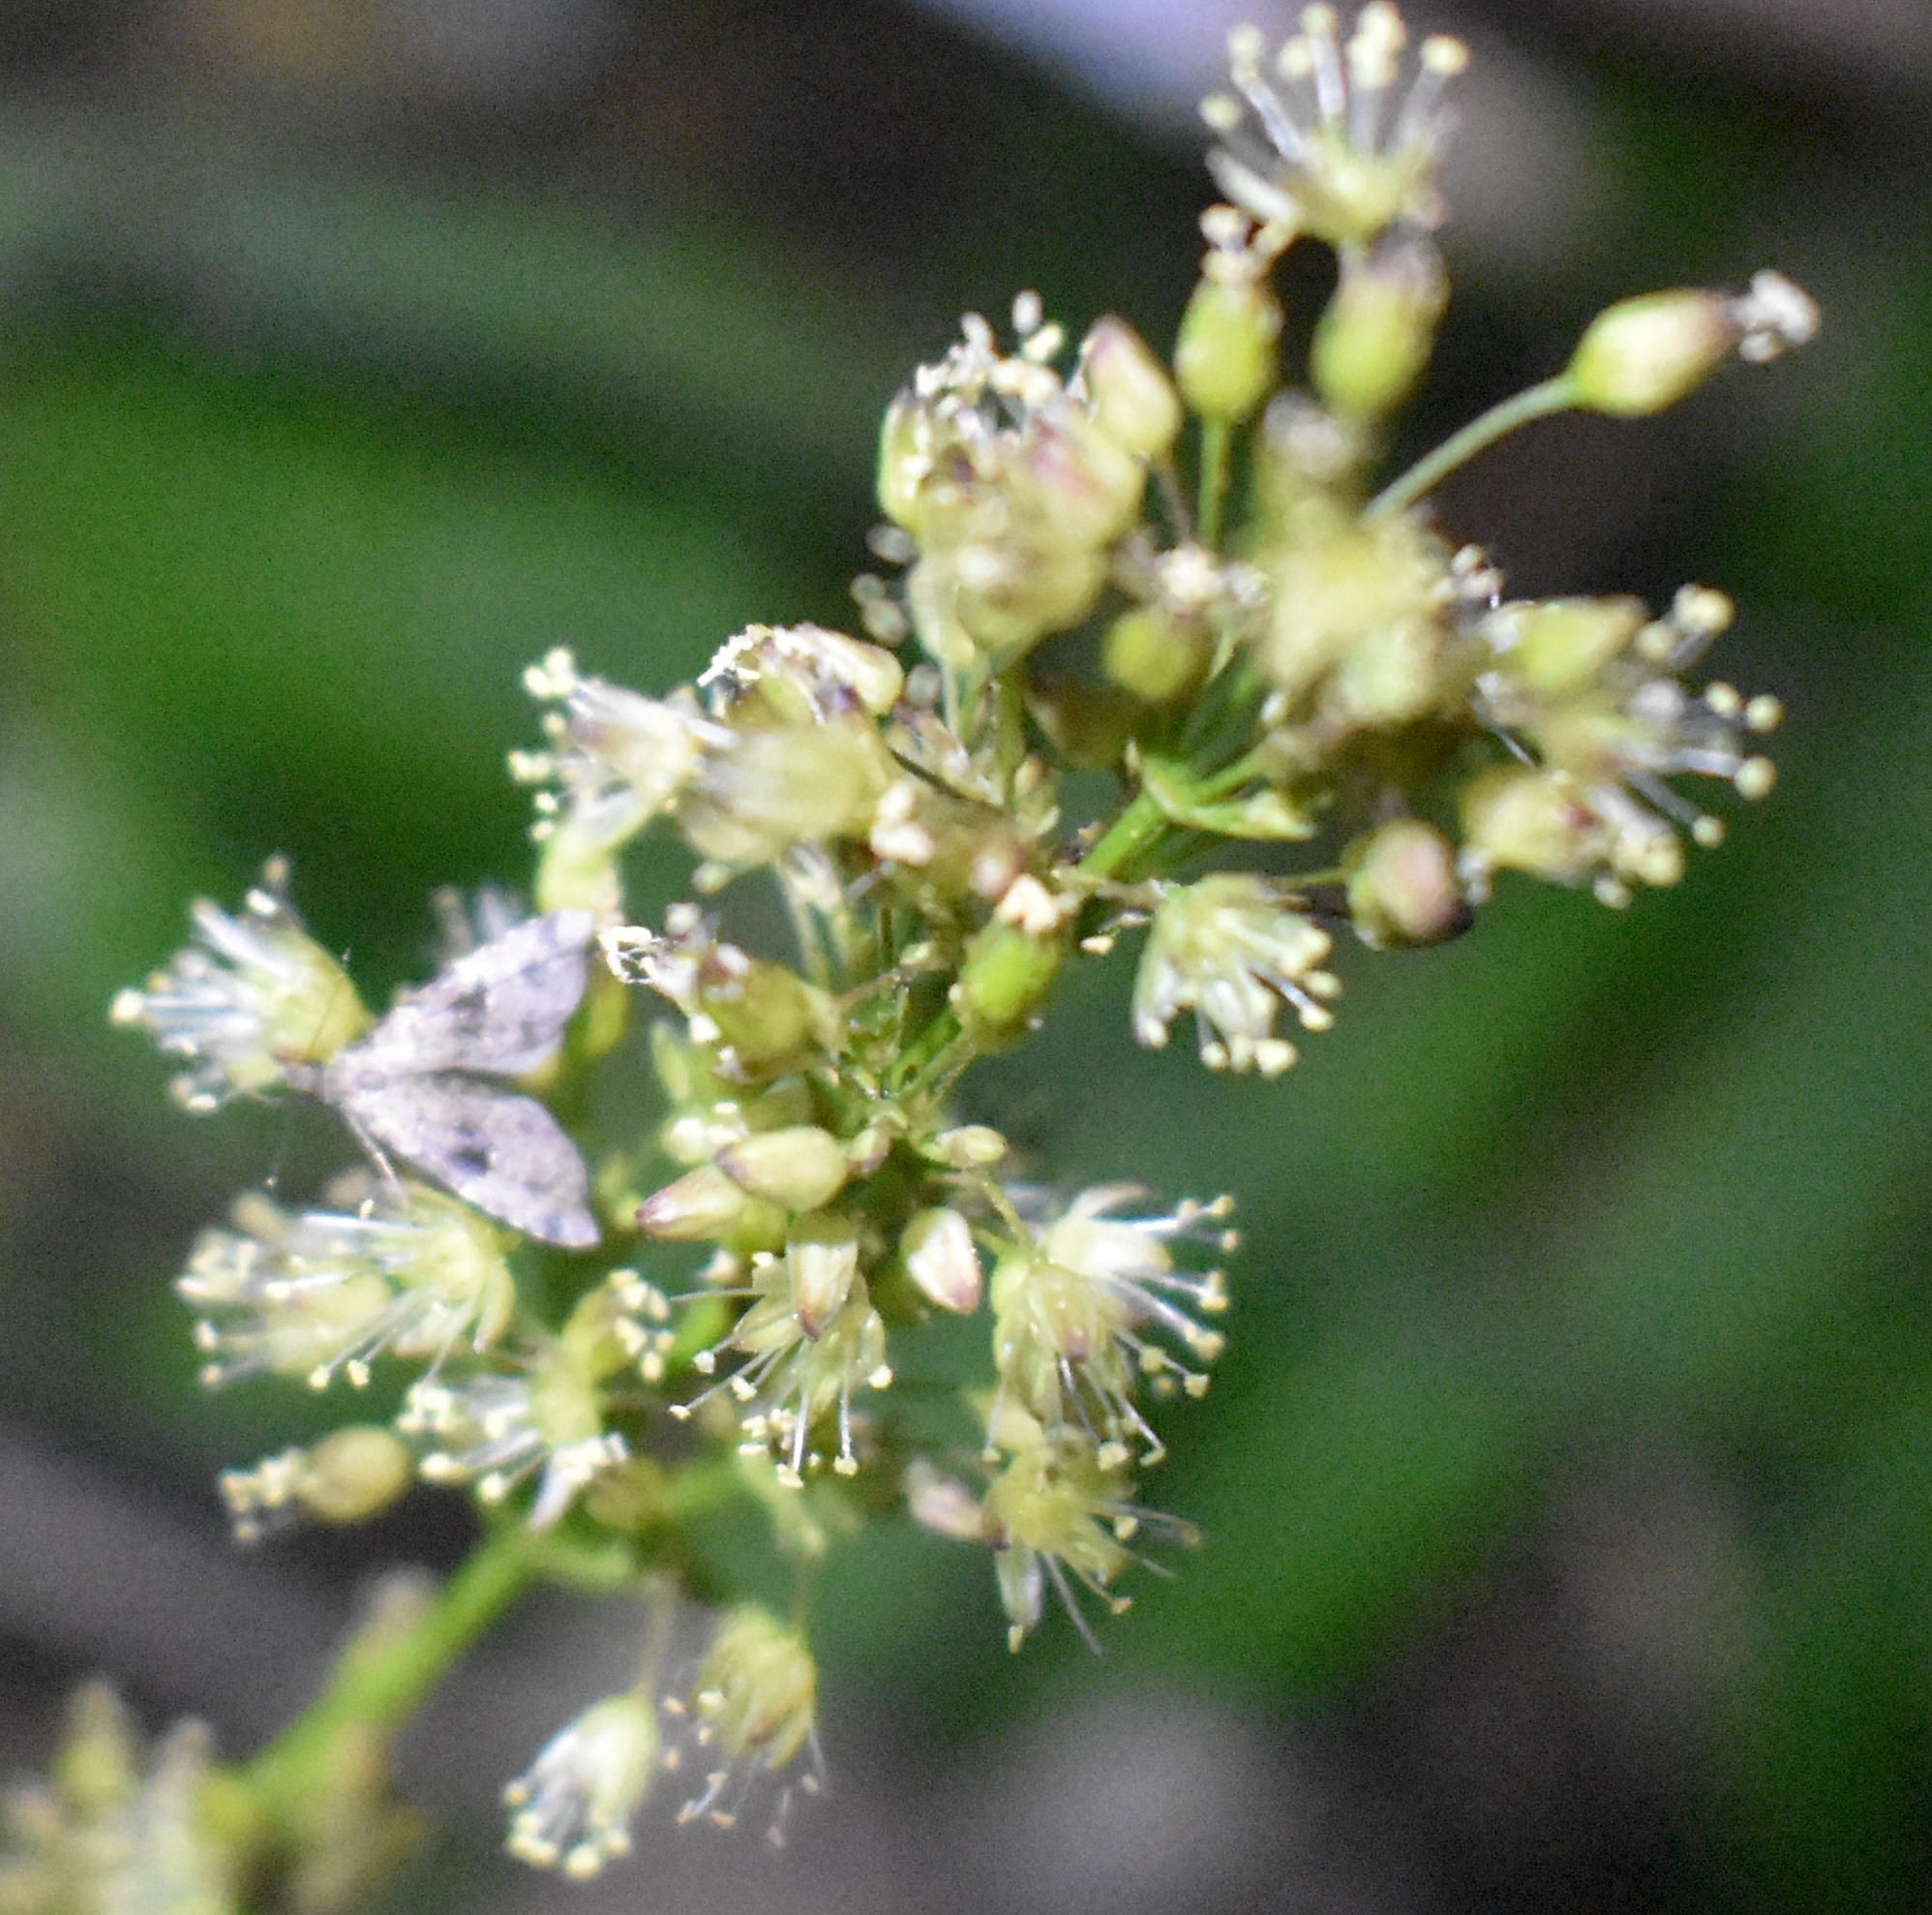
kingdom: Animalia
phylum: Arthropoda
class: Insecta
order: Lepidoptera
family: Erebidae
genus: Pseudoschrankia
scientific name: Pseudoschrankia brevipalpis
